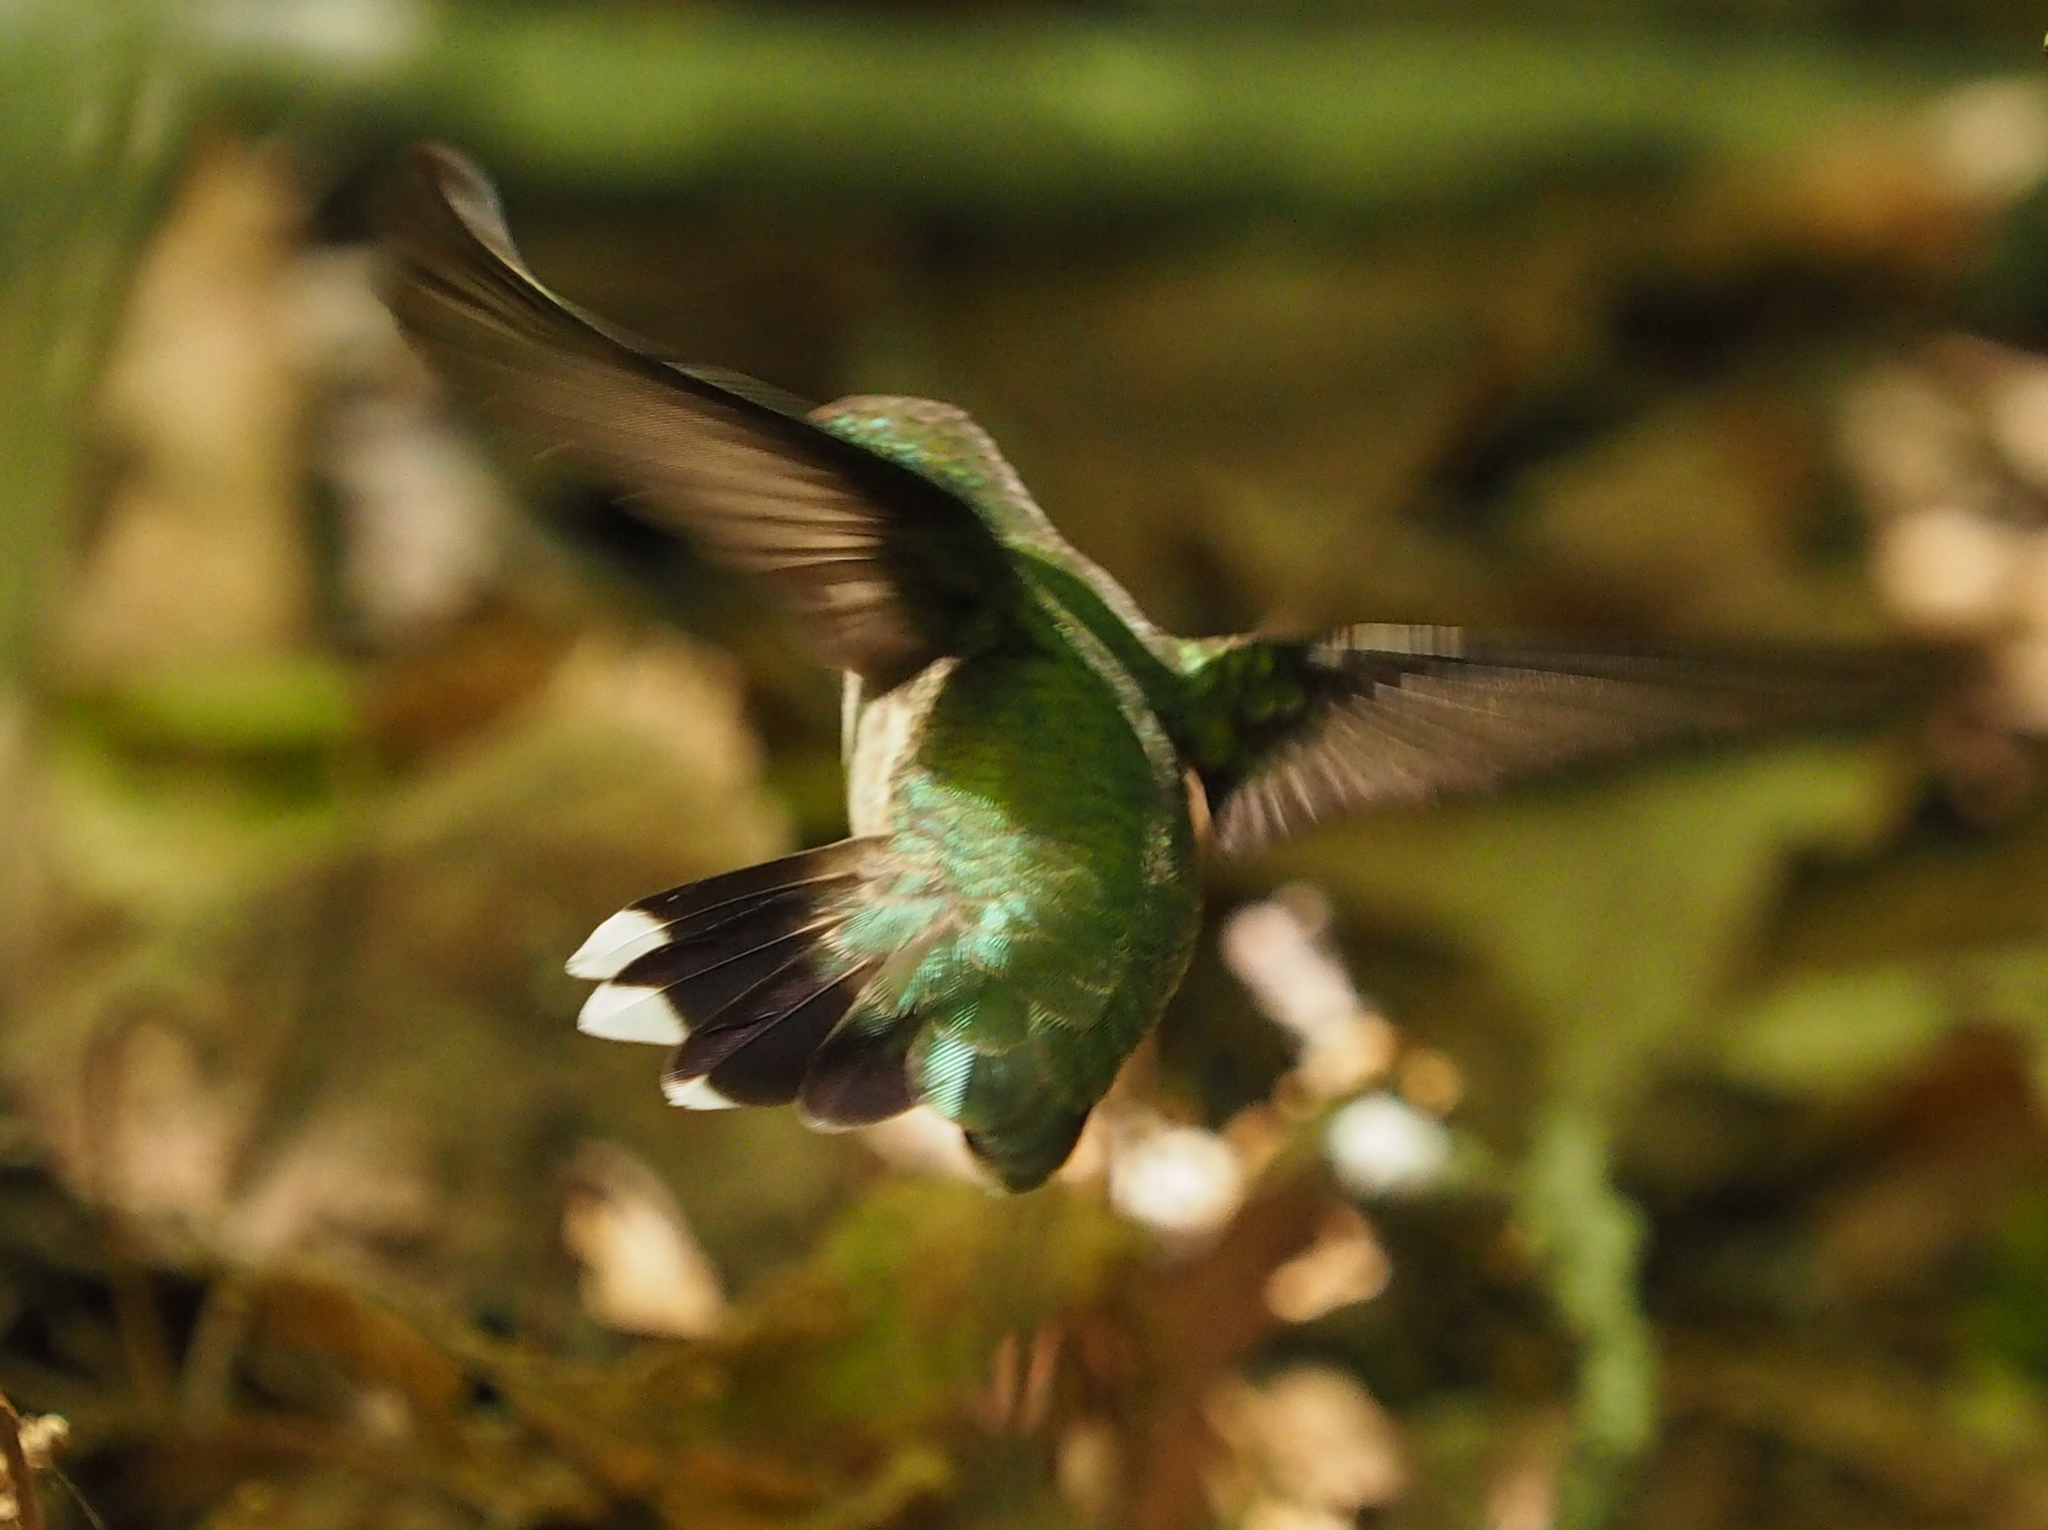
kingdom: Animalia
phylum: Chordata
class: Aves
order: Apodiformes
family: Trochilidae
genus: Archilochus
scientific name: Archilochus colubris
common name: Ruby-throated hummingbird
